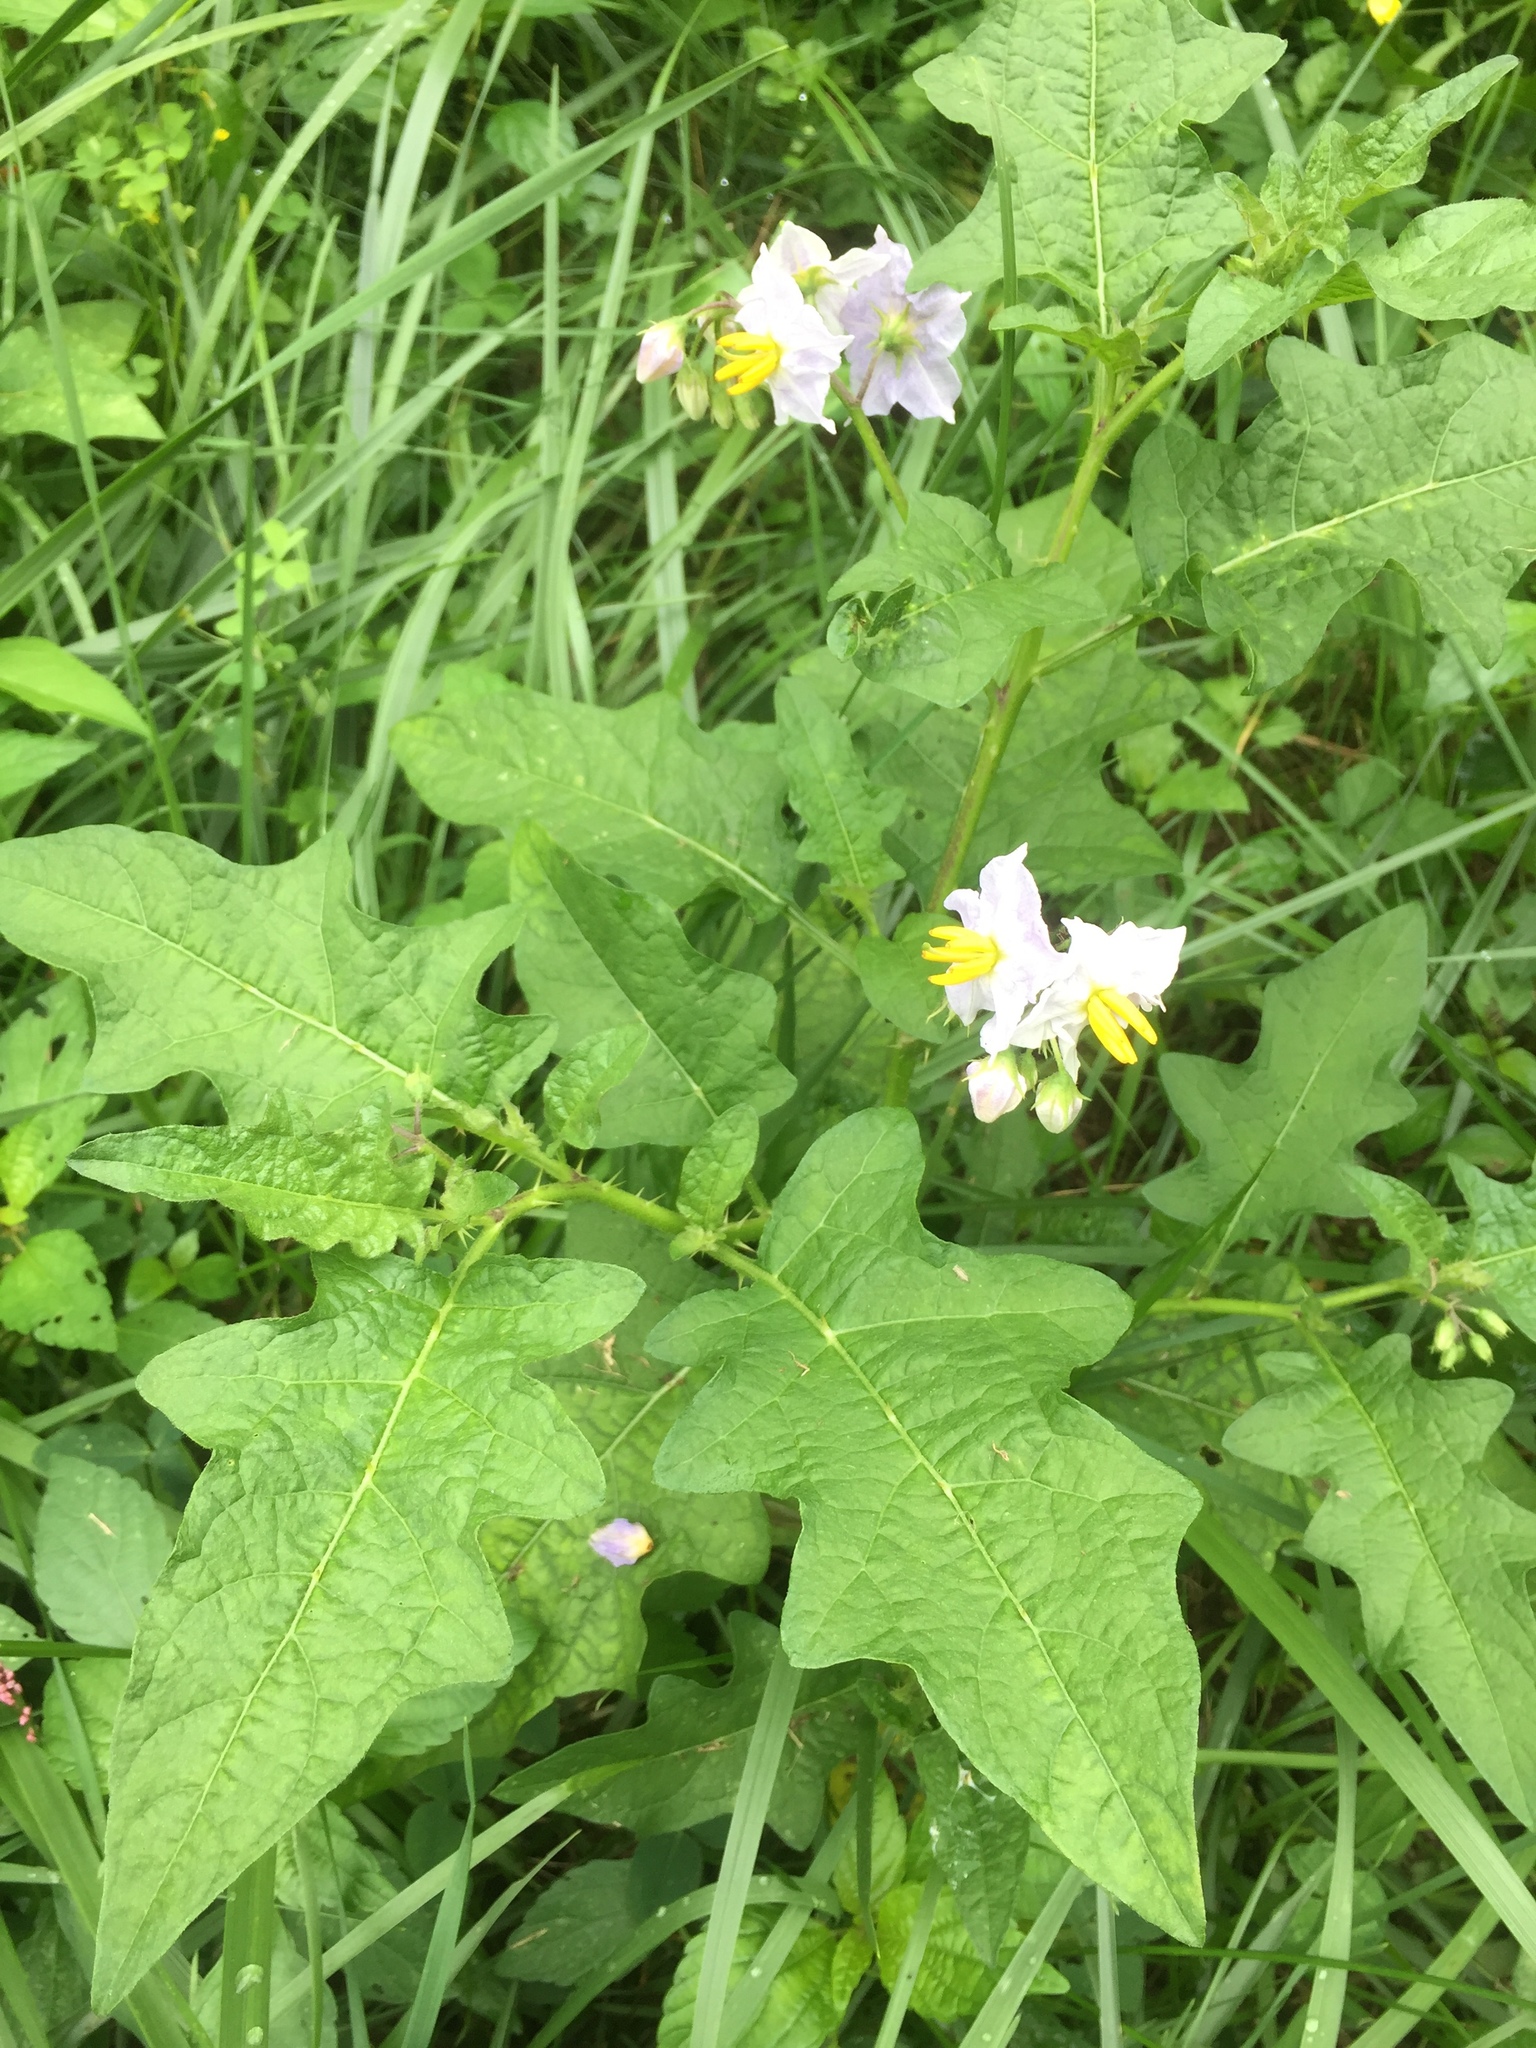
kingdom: Plantae
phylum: Tracheophyta
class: Magnoliopsida
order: Solanales
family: Solanaceae
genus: Solanum
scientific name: Solanum carolinense
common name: Horse-nettle
